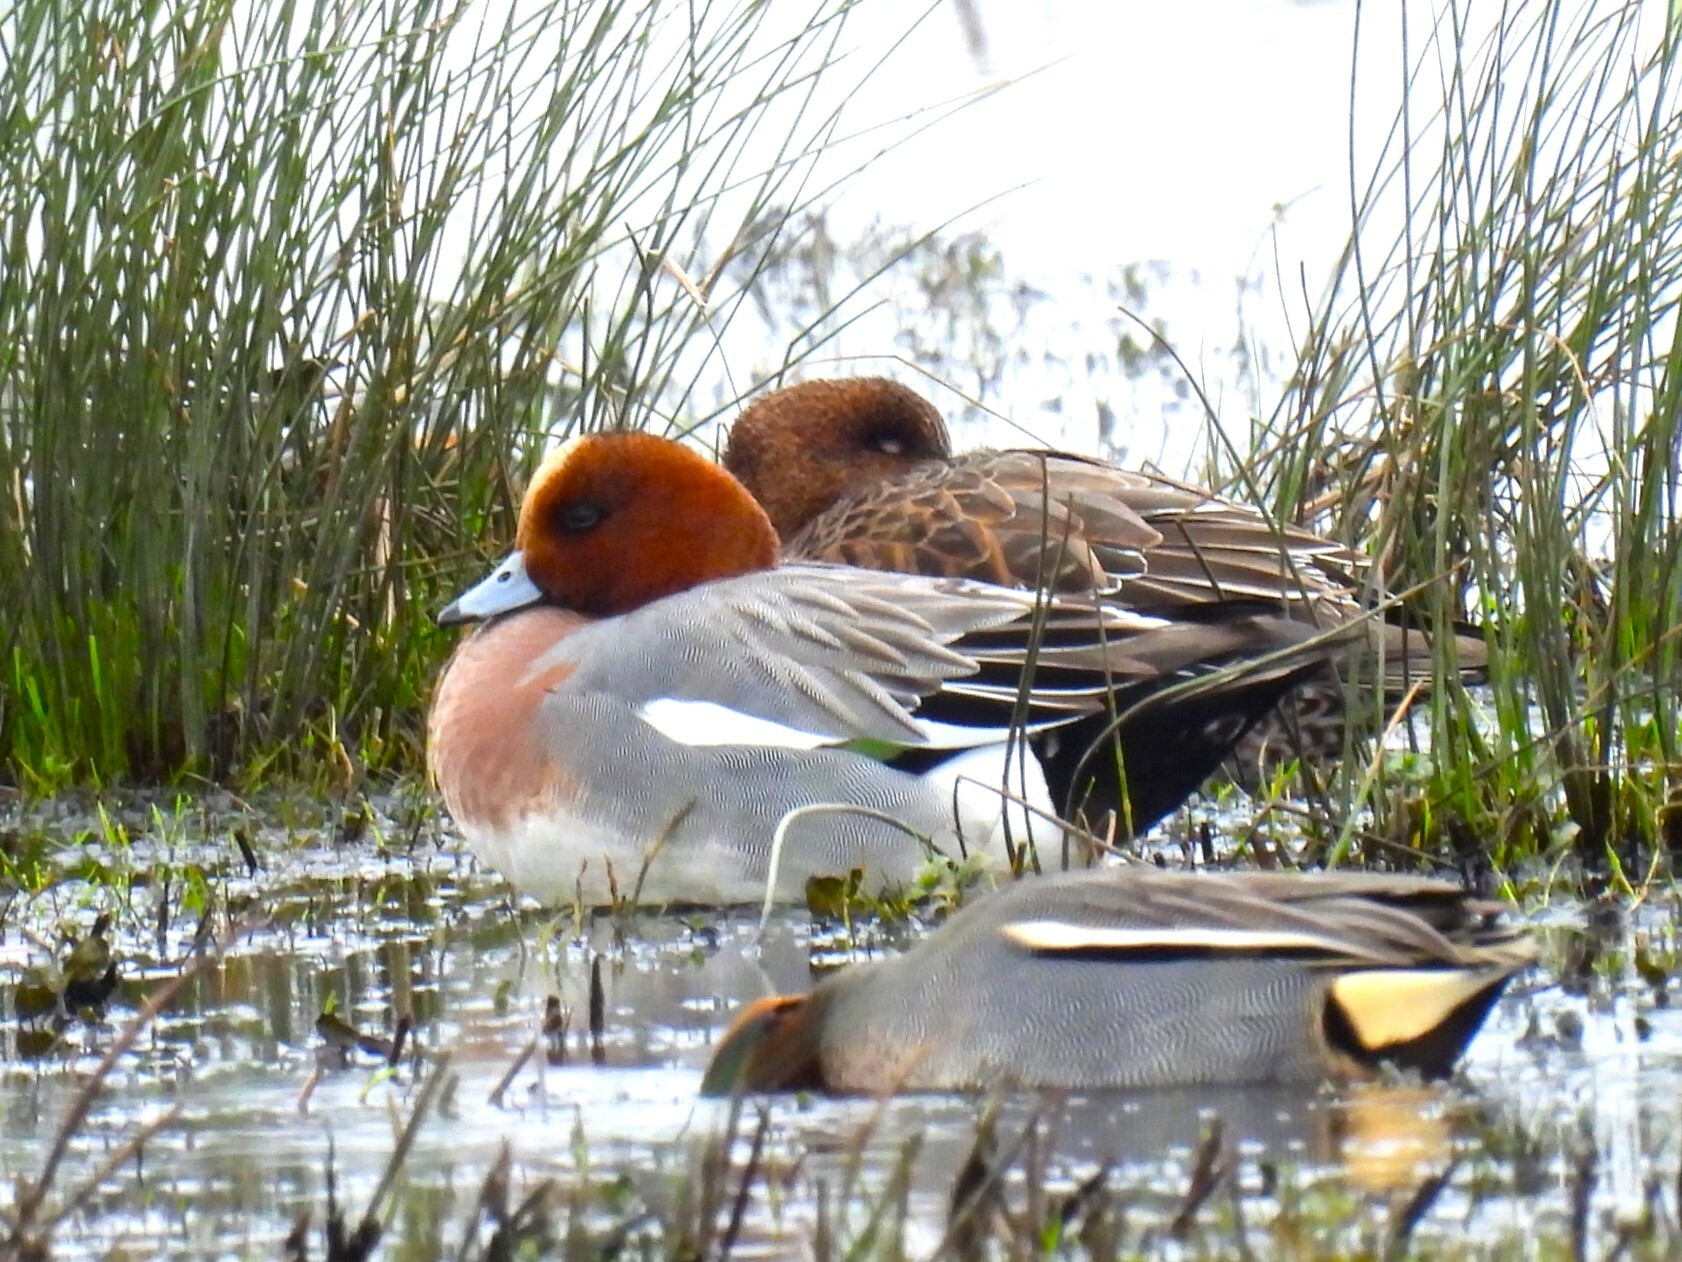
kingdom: Animalia
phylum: Chordata
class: Aves
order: Anseriformes
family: Anatidae
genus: Mareca
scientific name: Mareca penelope
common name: Eurasian wigeon
